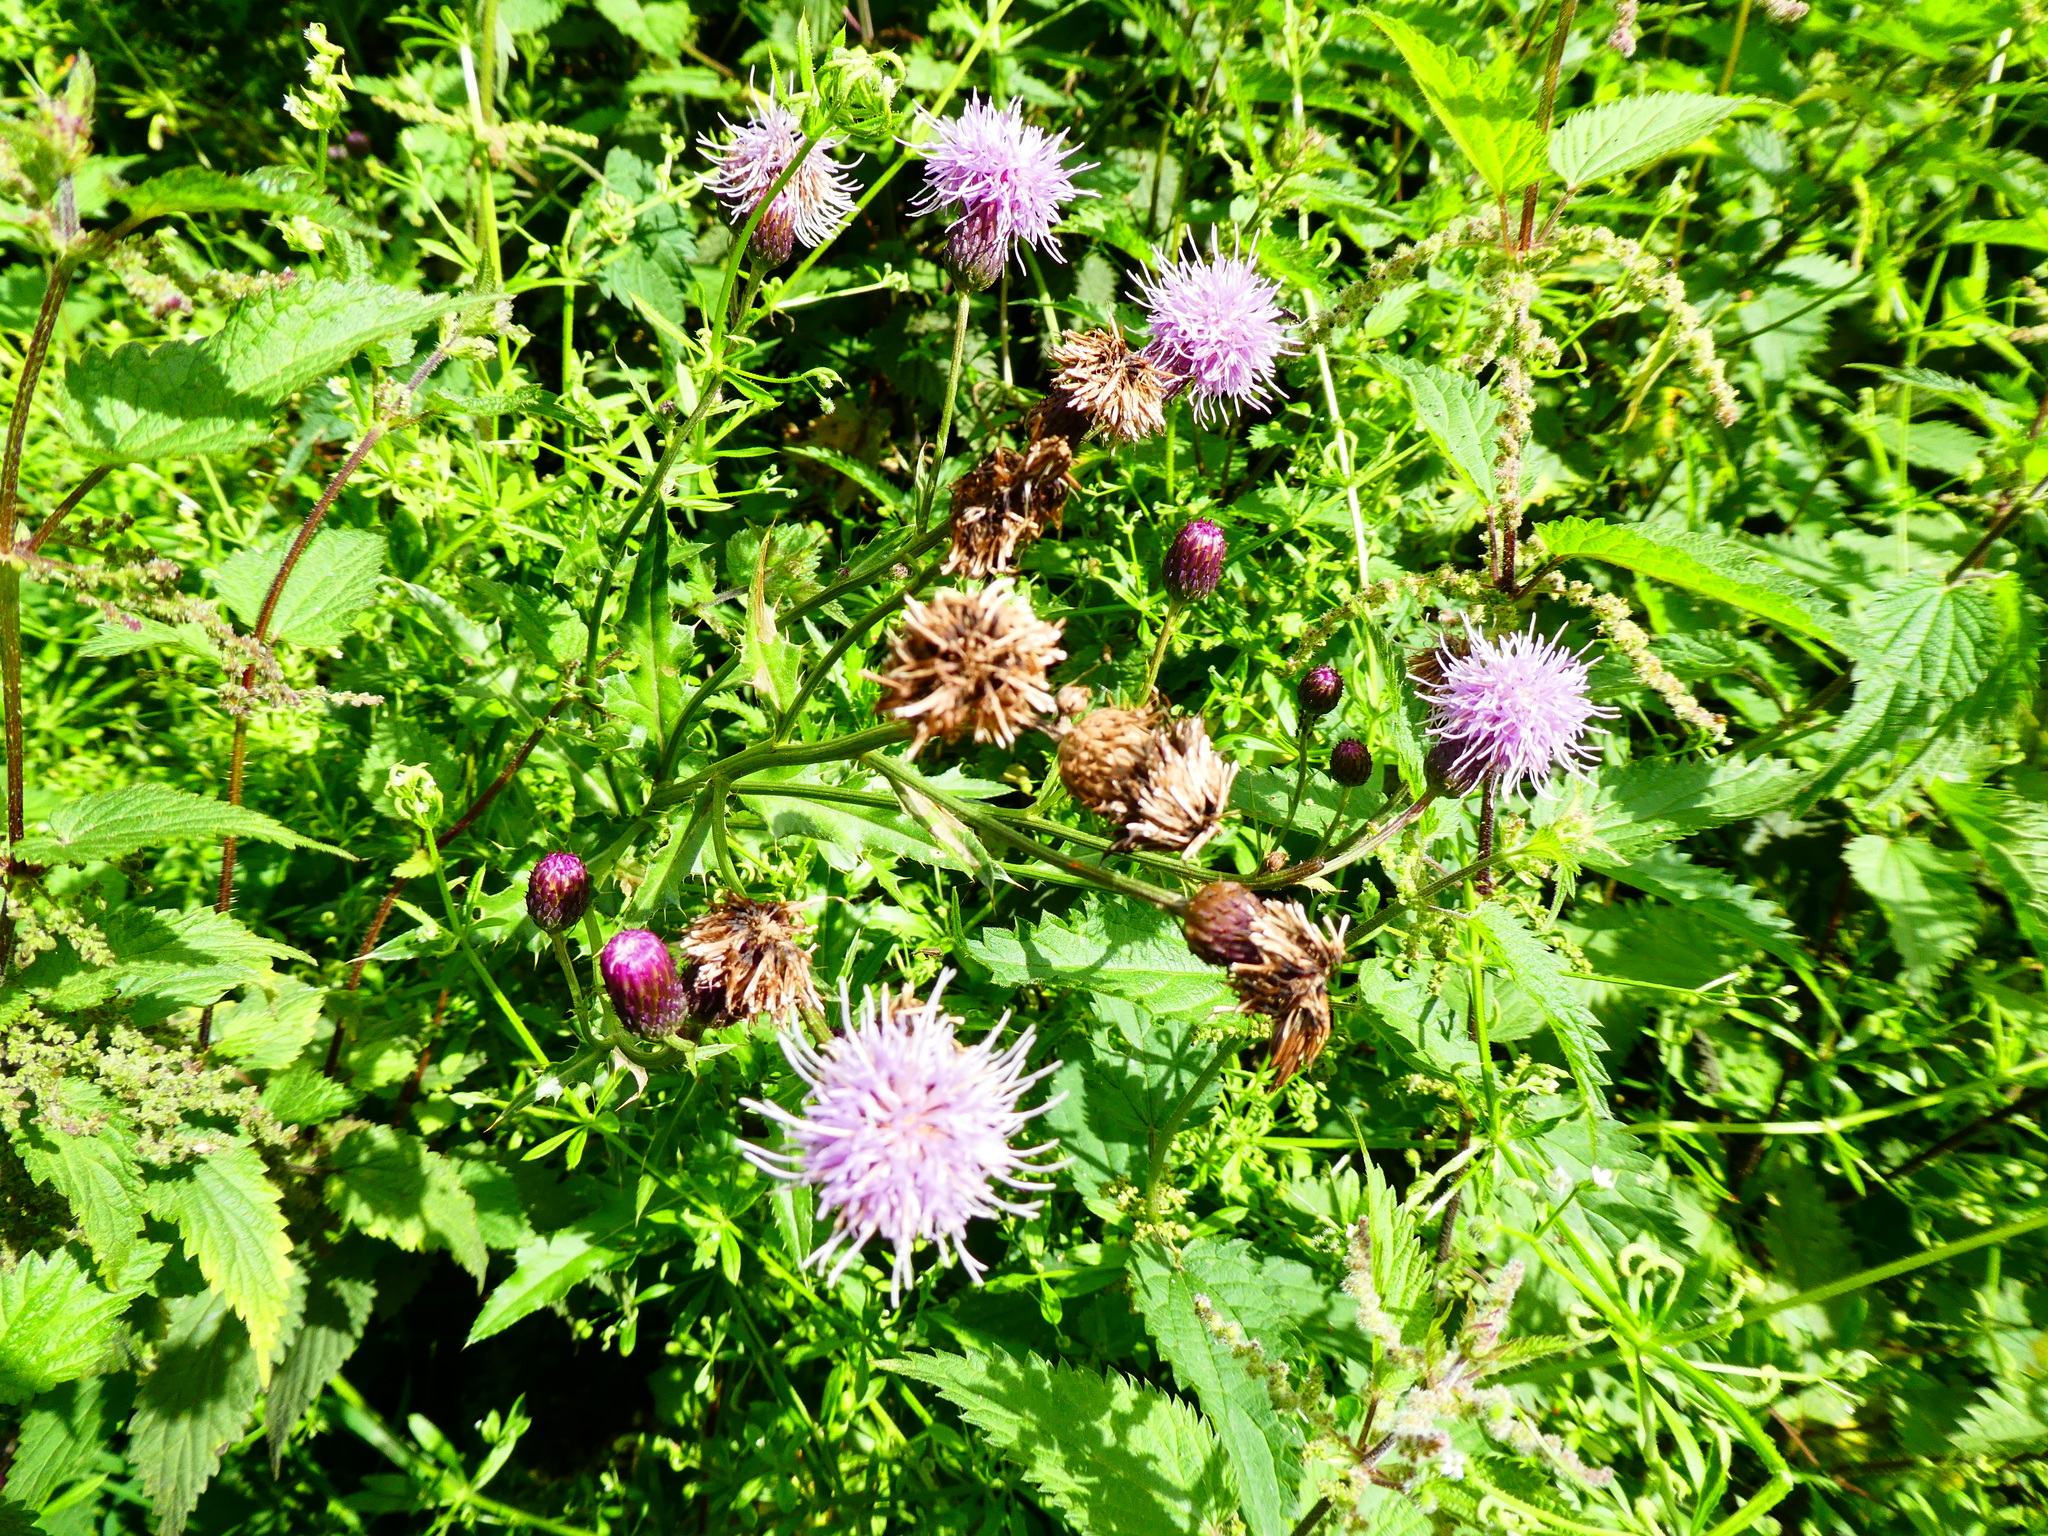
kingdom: Plantae
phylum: Tracheophyta
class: Magnoliopsida
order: Asterales
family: Asteraceae
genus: Cirsium
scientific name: Cirsium arvense
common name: Creeping thistle
